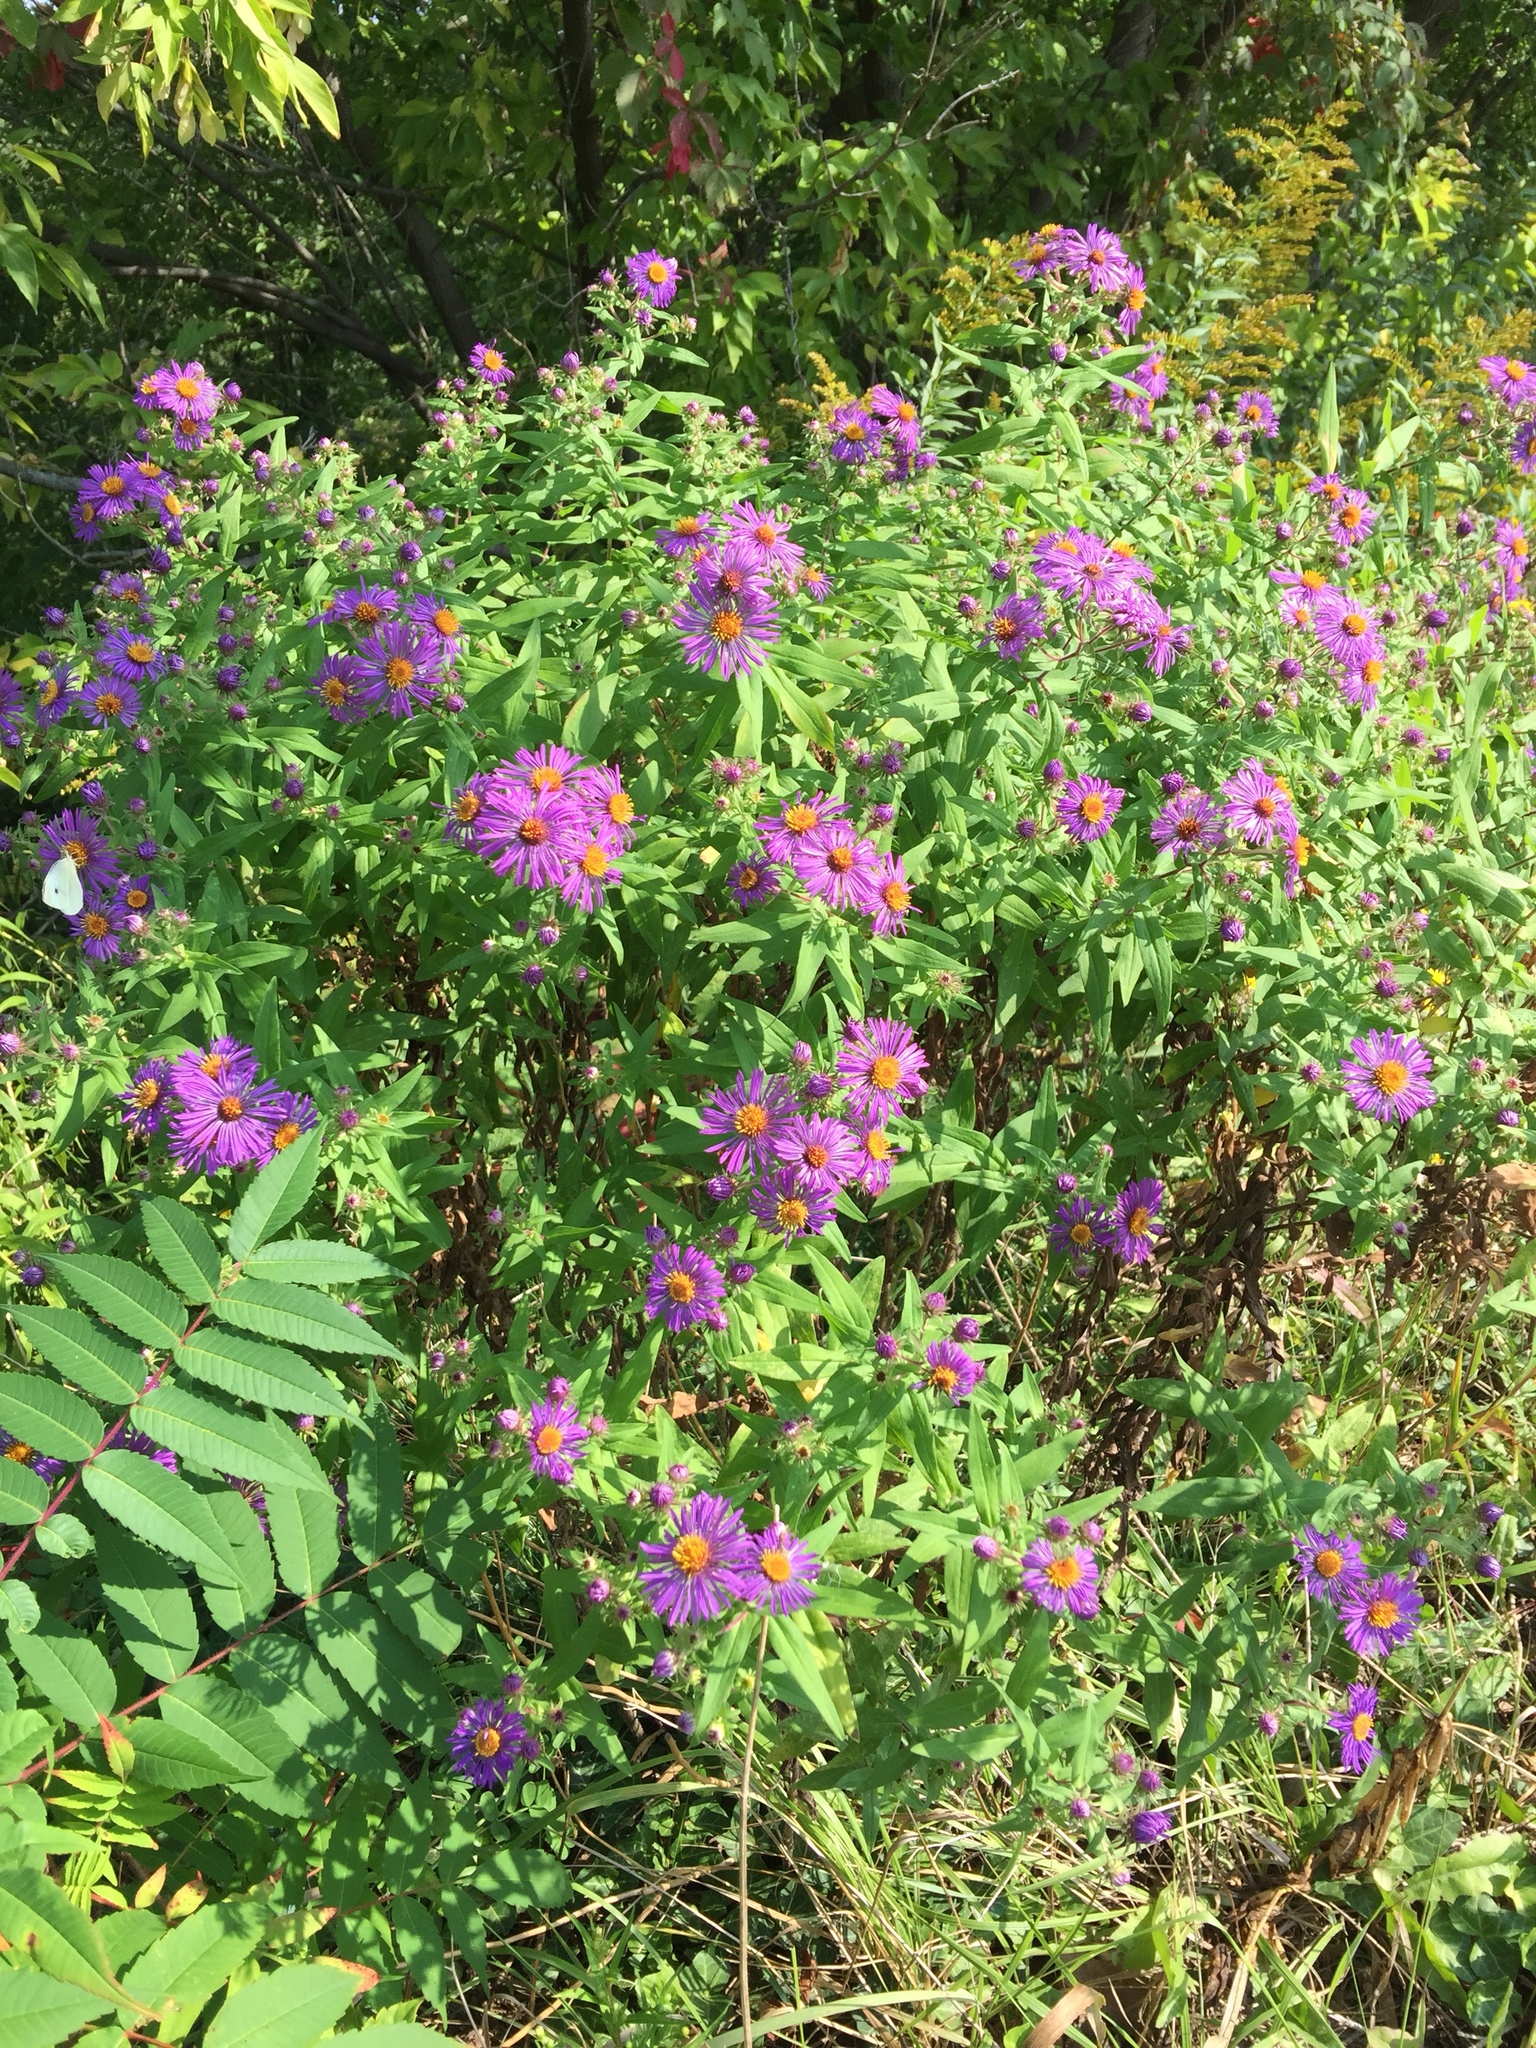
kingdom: Plantae
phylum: Tracheophyta
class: Magnoliopsida
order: Asterales
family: Asteraceae
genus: Symphyotrichum
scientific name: Symphyotrichum novae-angliae
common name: Michaelmas daisy
